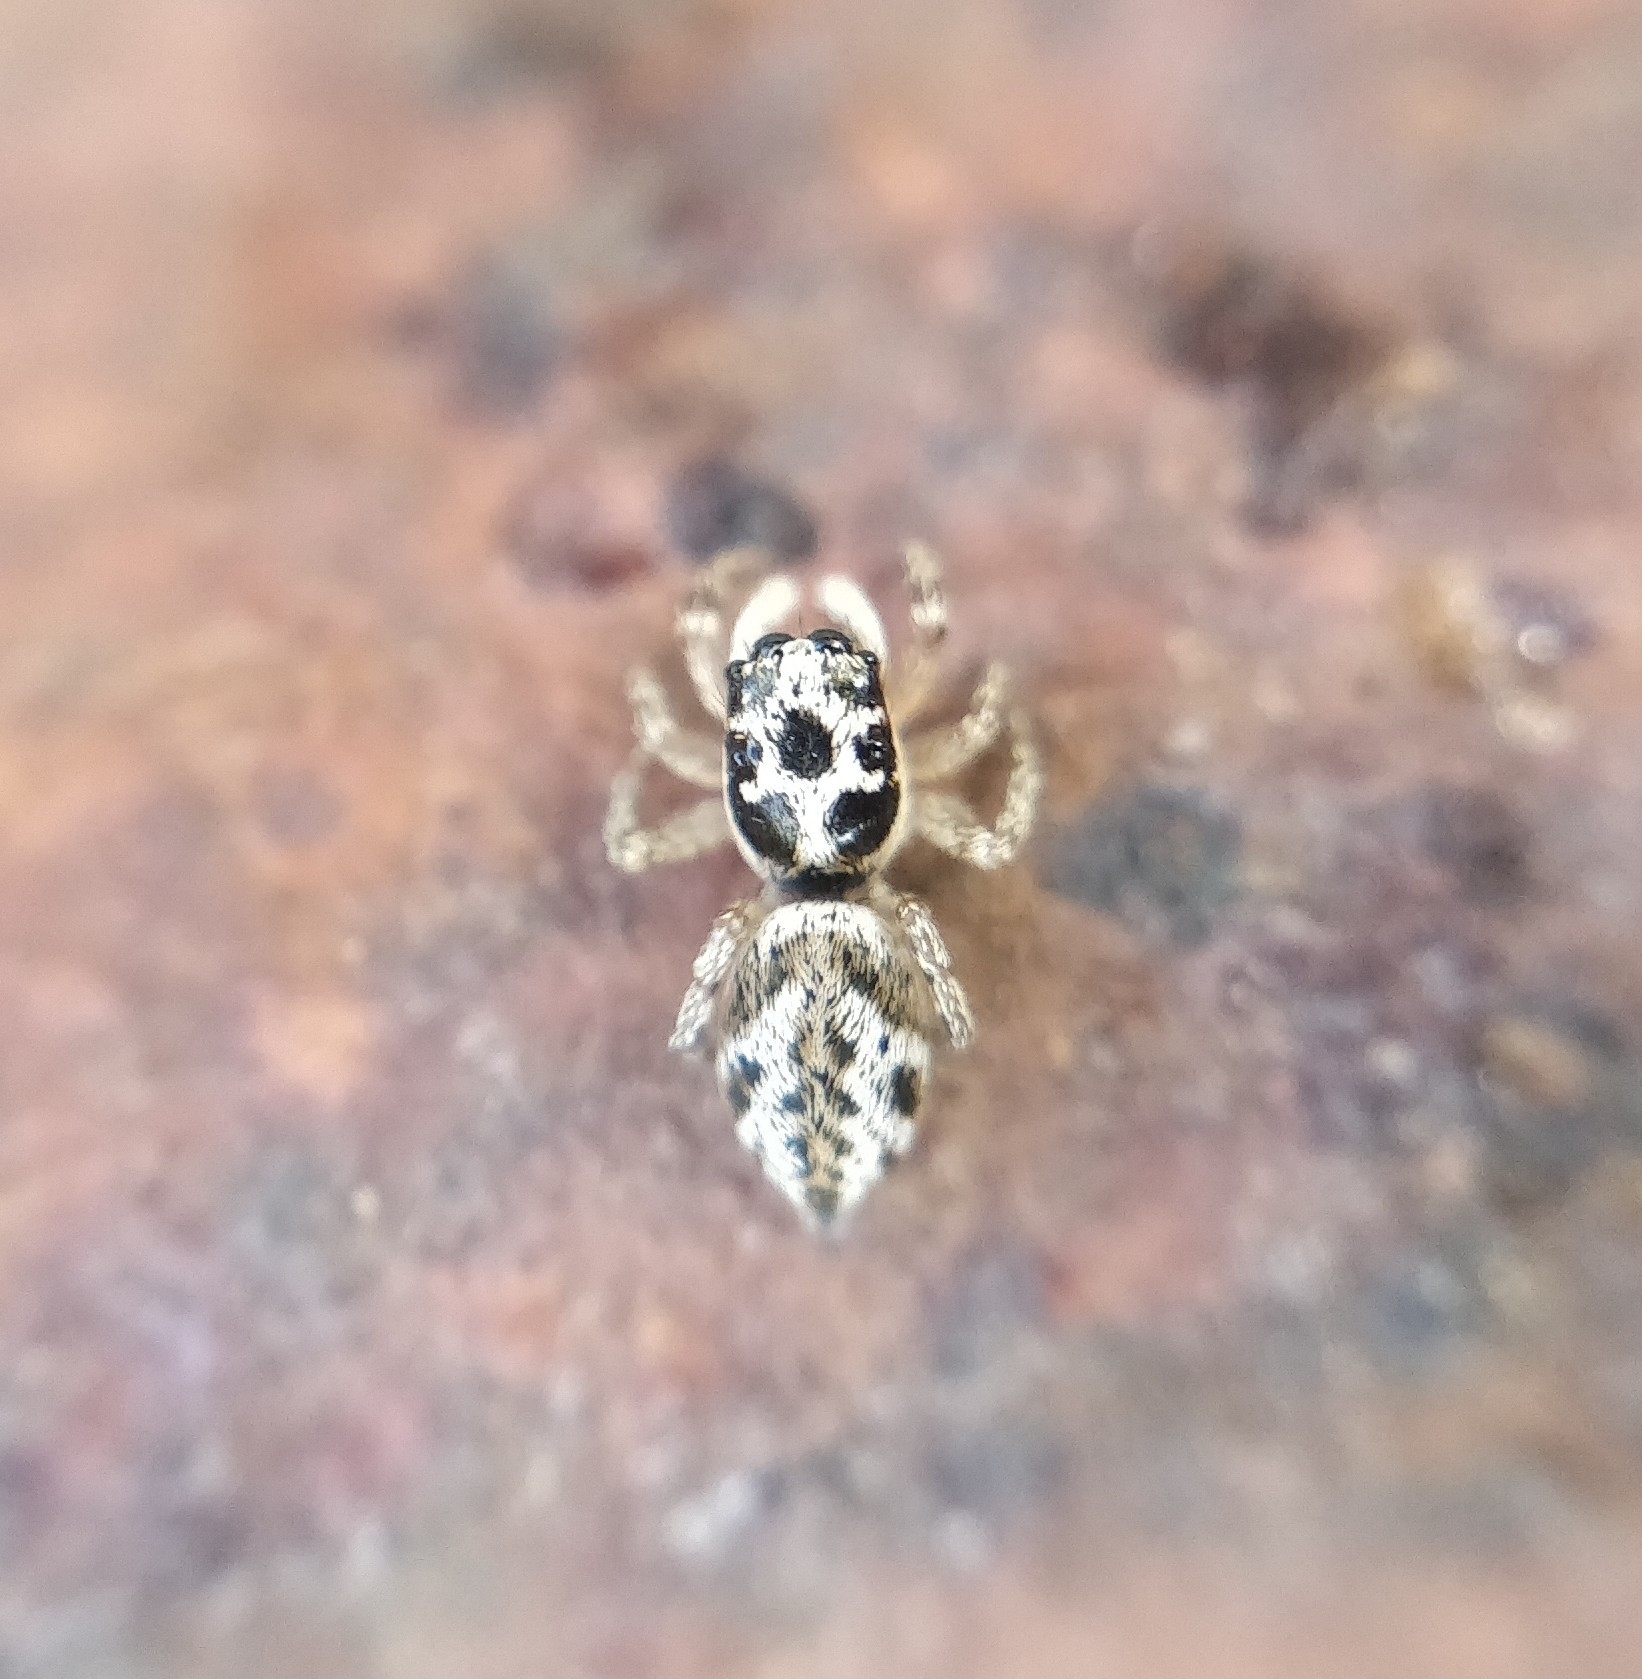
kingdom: Animalia
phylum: Arthropoda
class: Arachnida
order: Araneae
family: Salticidae
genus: Salticus
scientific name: Salticus gomerensis
